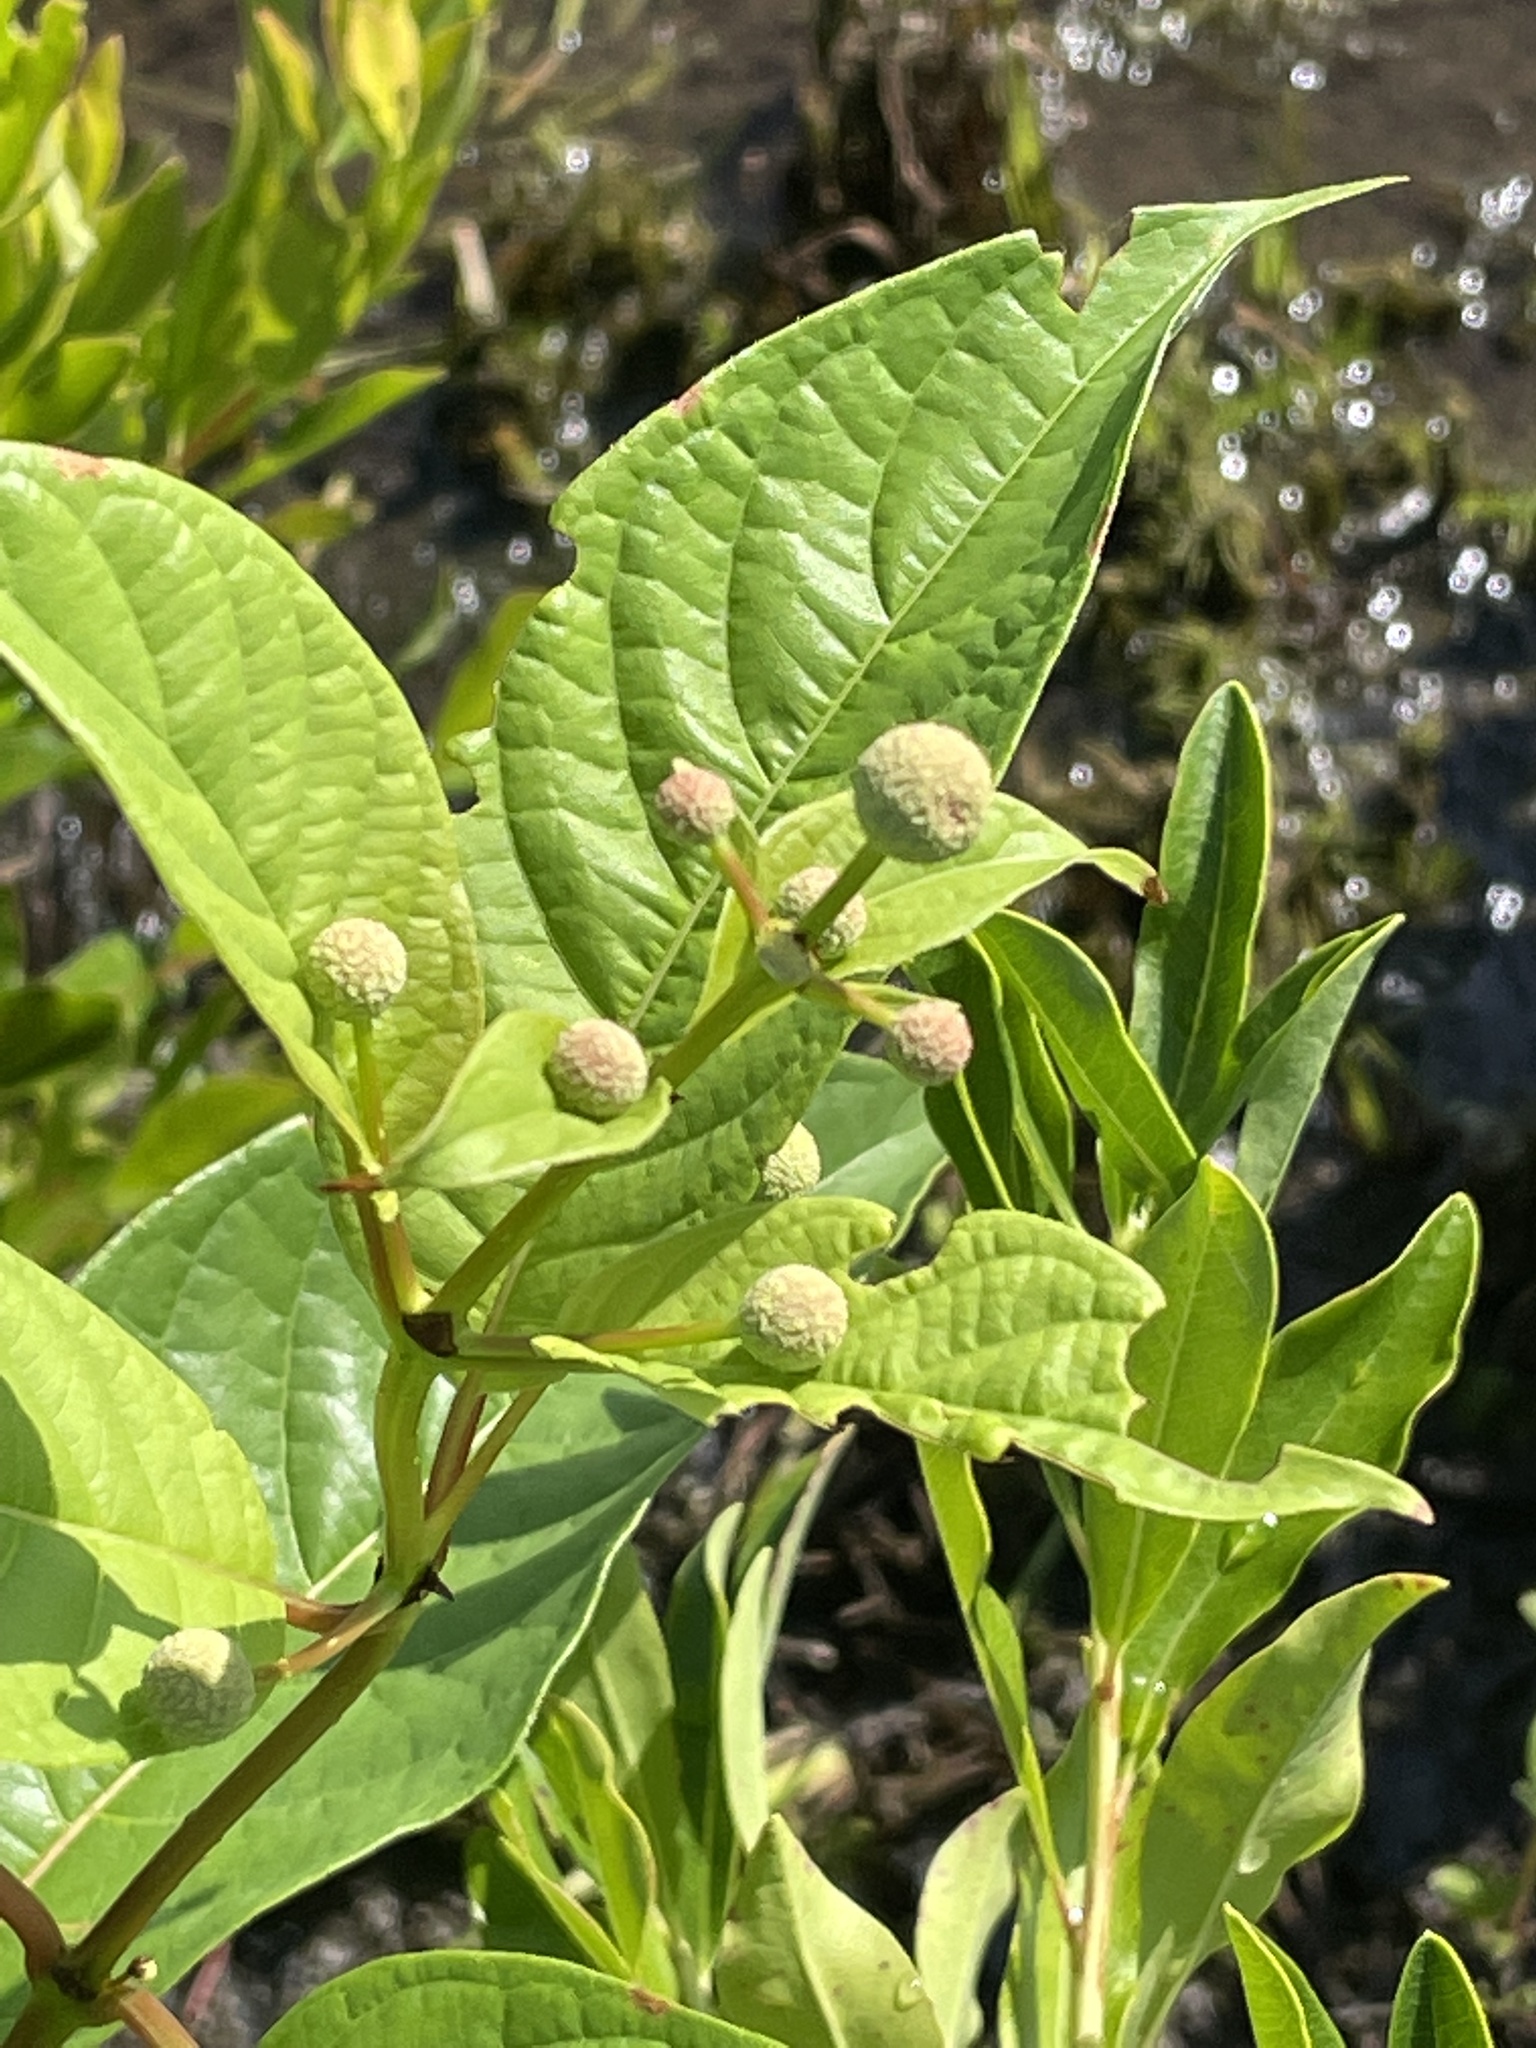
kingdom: Plantae
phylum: Tracheophyta
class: Magnoliopsida
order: Gentianales
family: Rubiaceae
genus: Cephalanthus
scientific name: Cephalanthus occidentalis
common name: Button-willow
